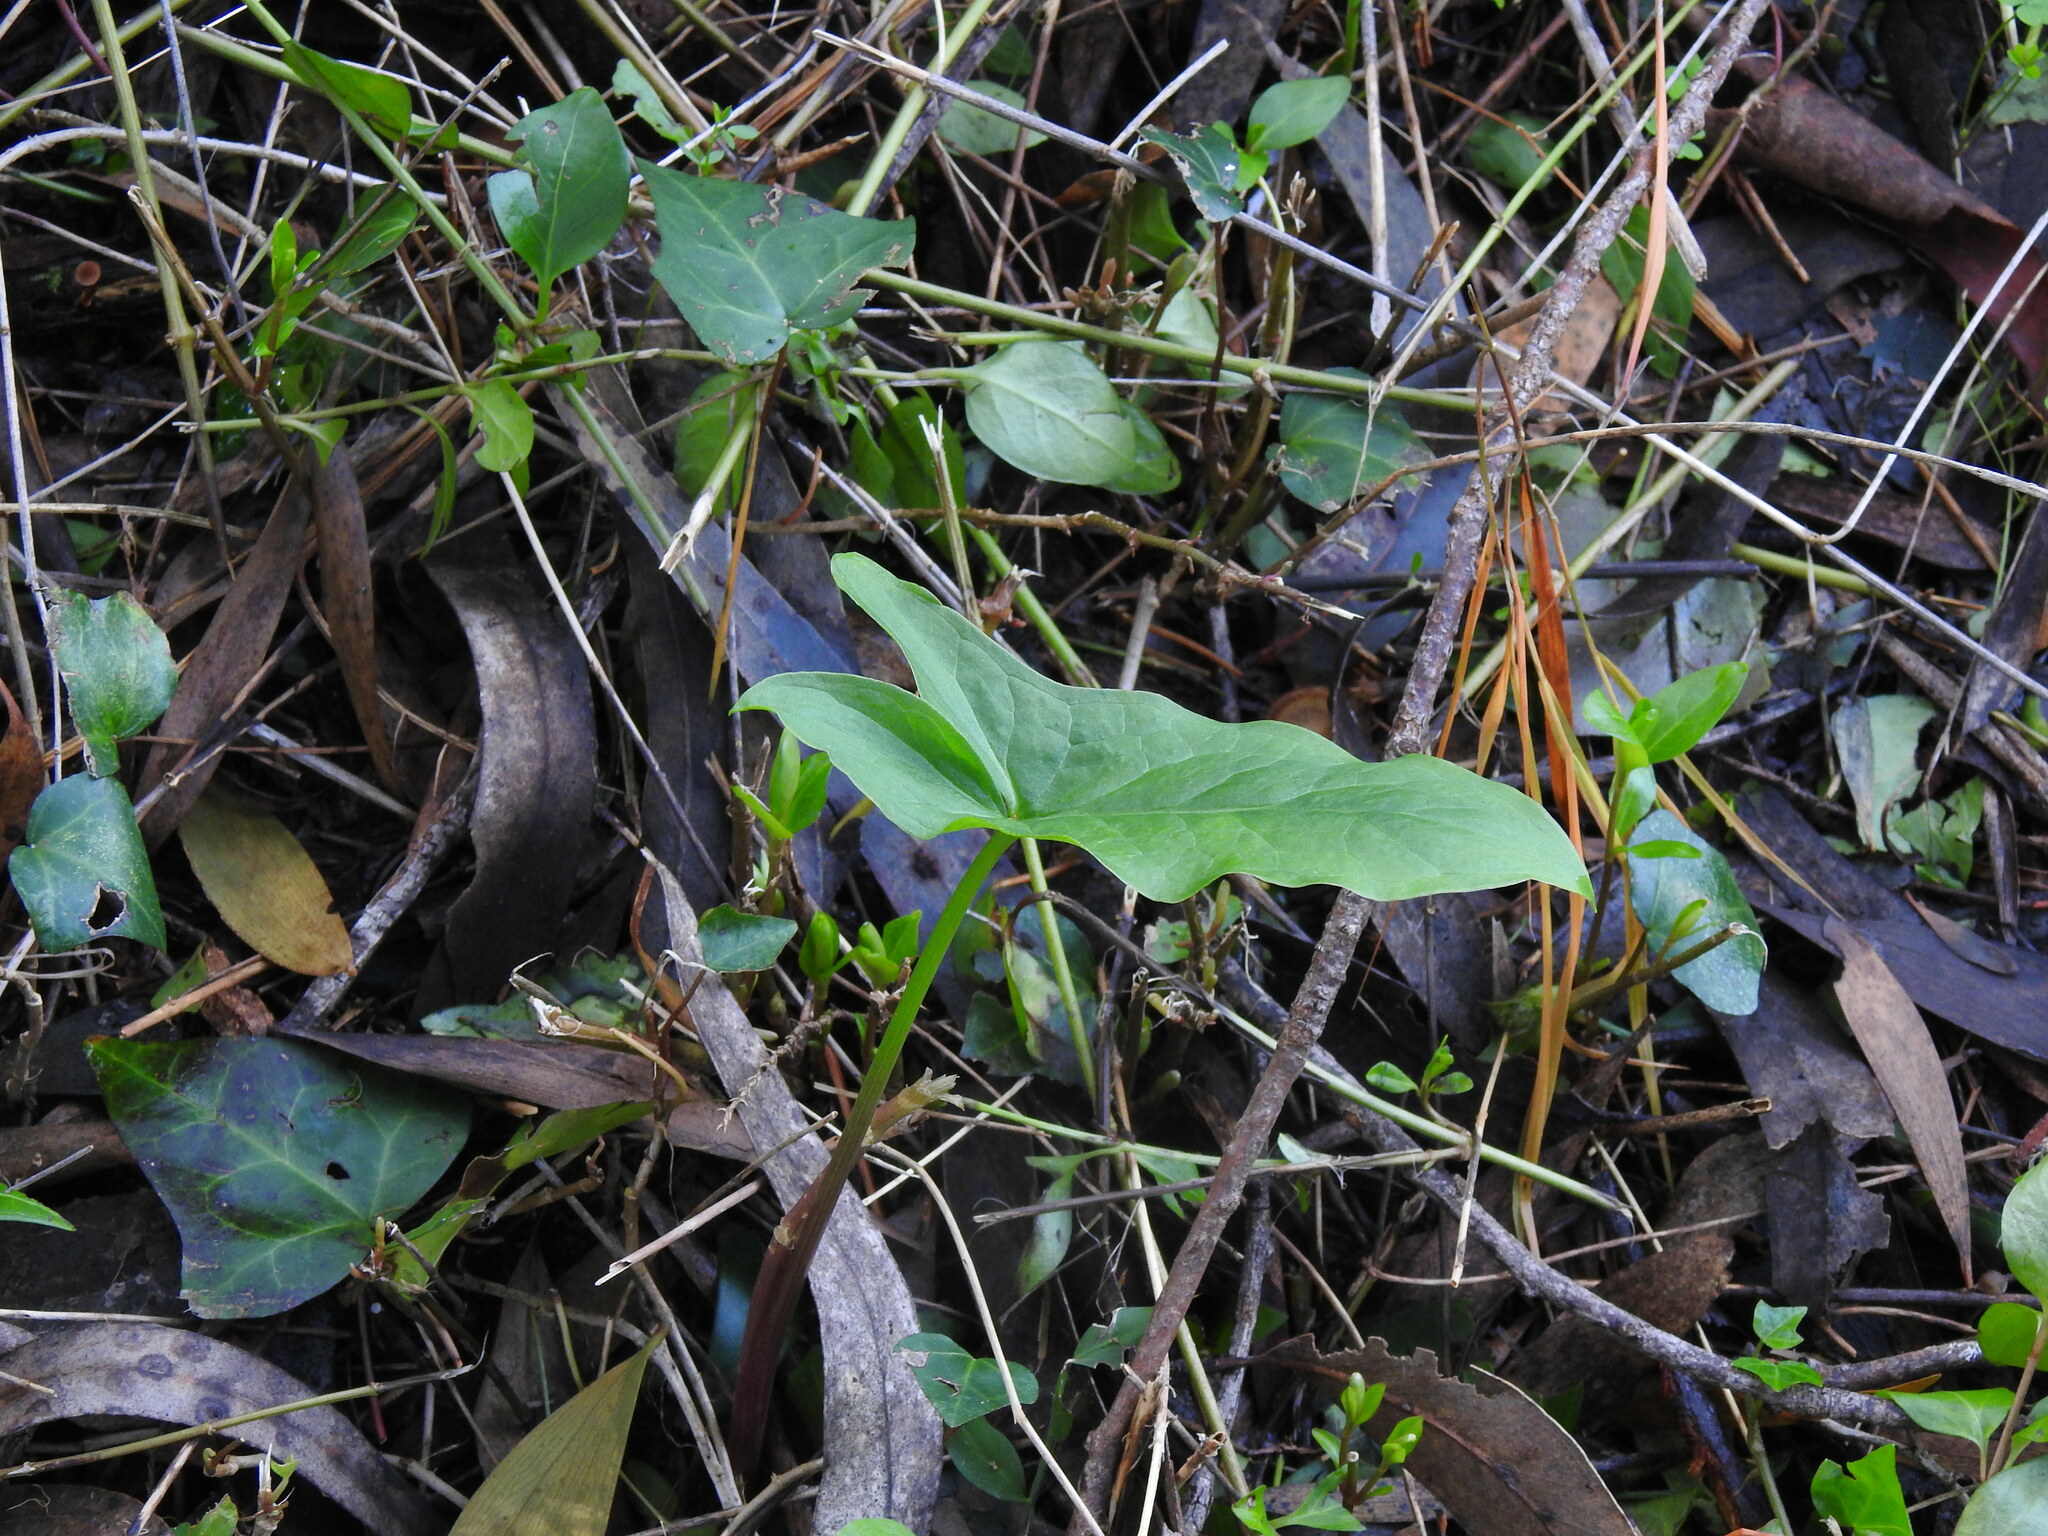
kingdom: Plantae
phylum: Tracheophyta
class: Liliopsida
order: Alismatales
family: Araceae
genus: Arum
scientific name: Arum italicum
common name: Italian lords-and-ladies
